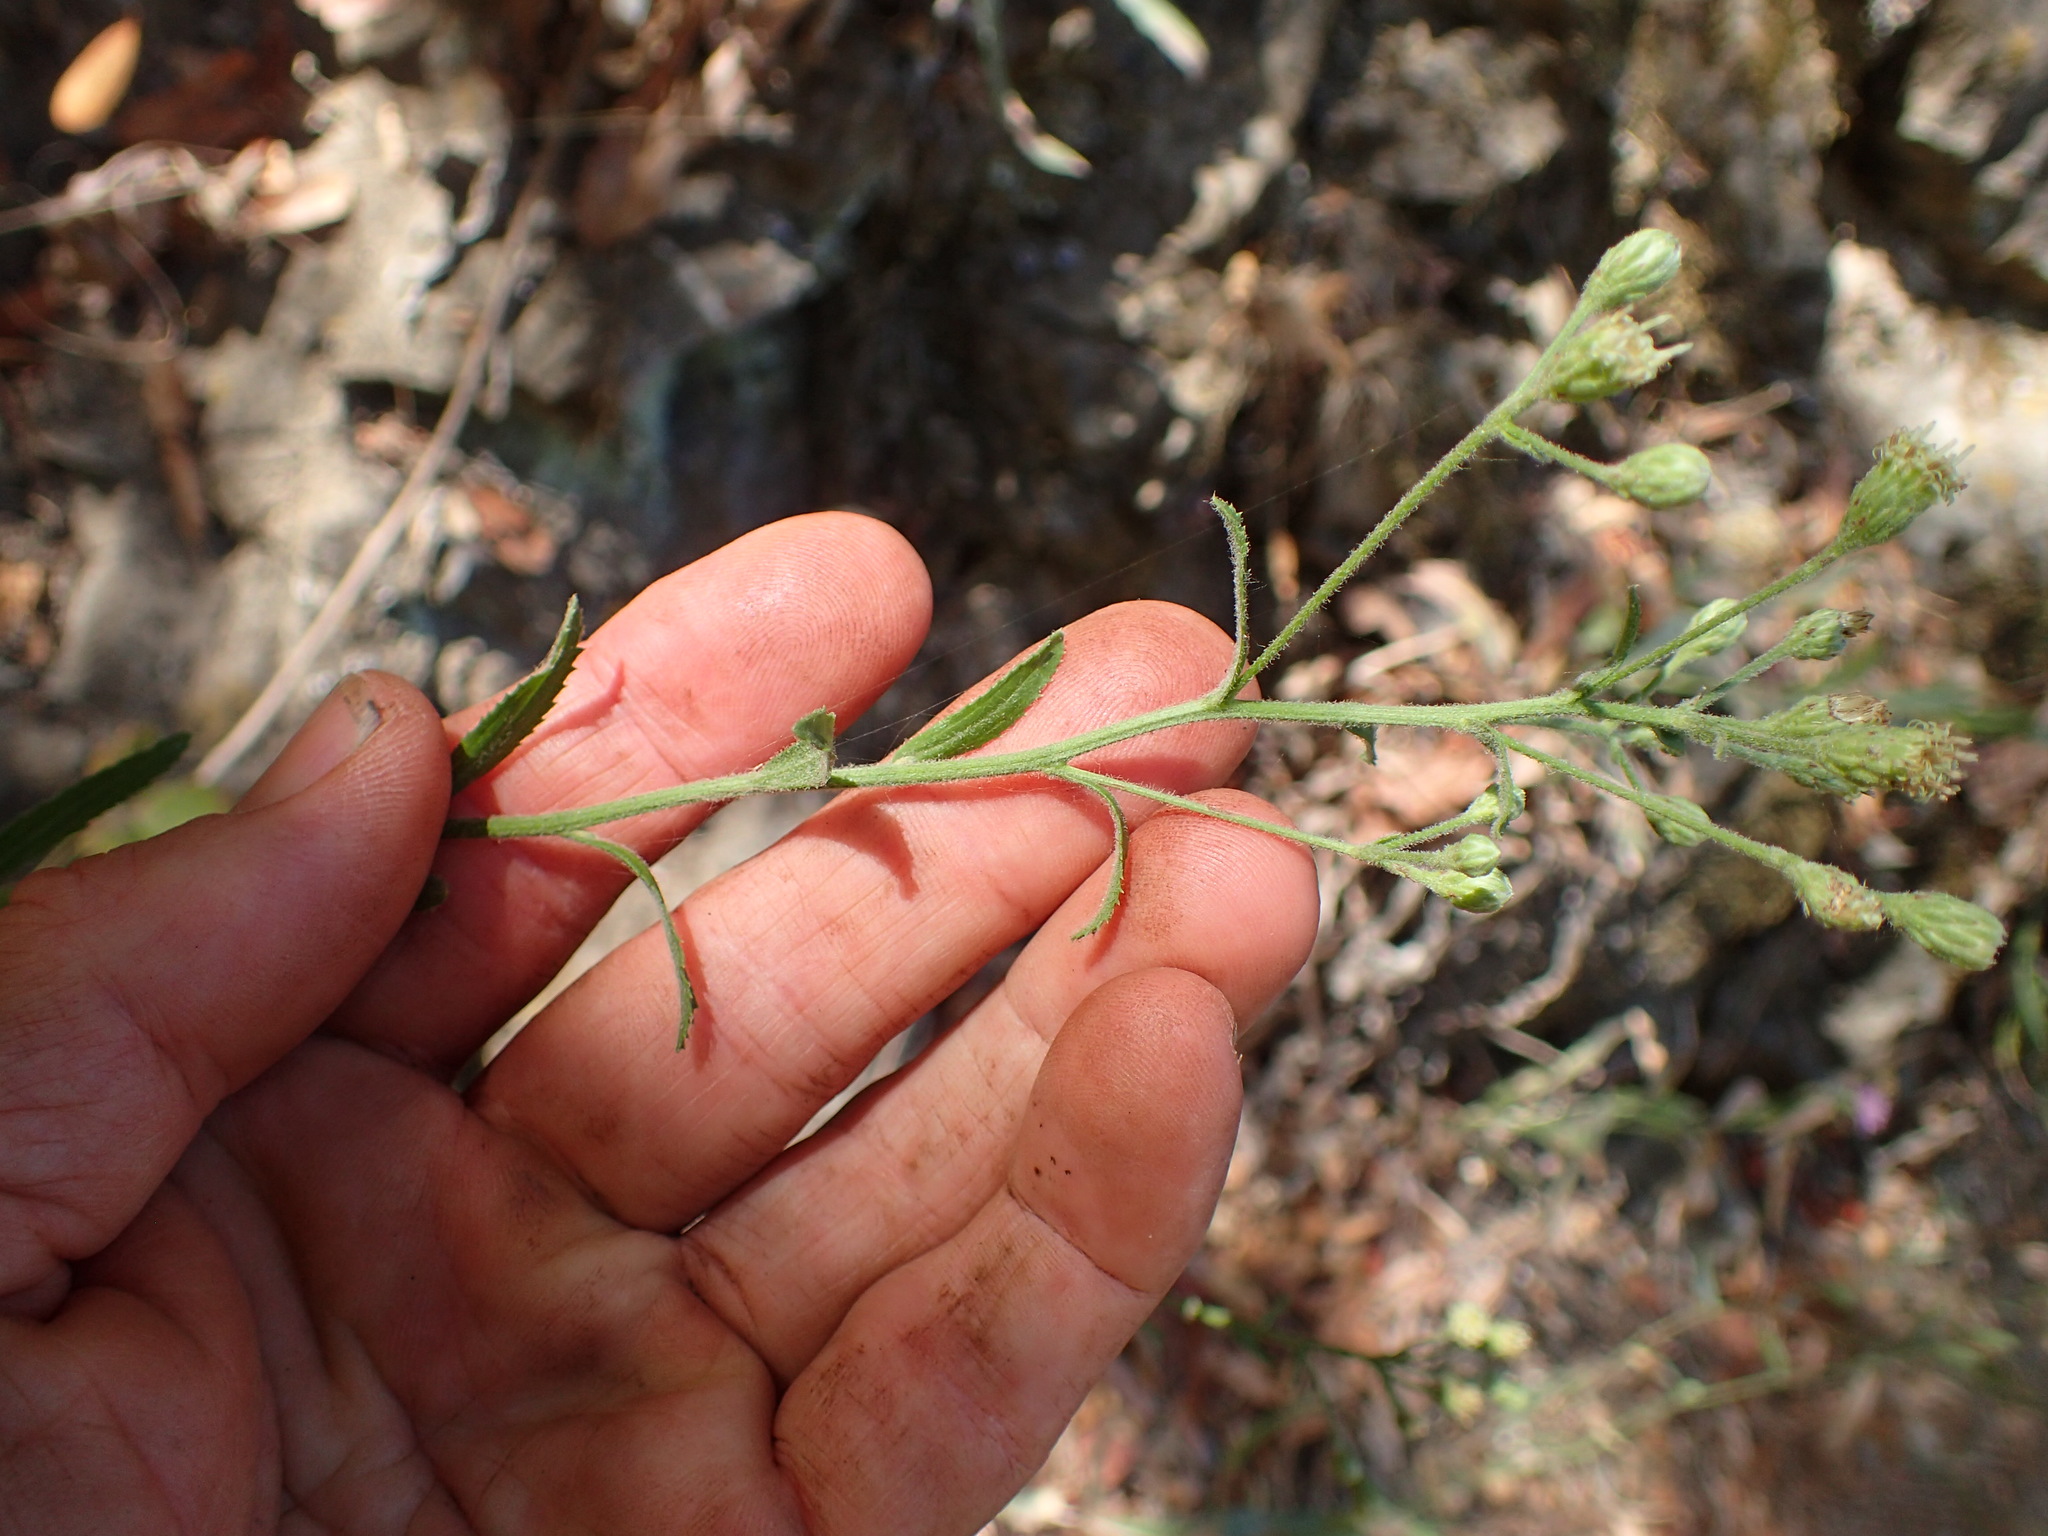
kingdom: Plantae
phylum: Tracheophyta
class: Magnoliopsida
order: Asterales
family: Asteraceae
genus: Baccharis
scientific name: Baccharis plummerae
